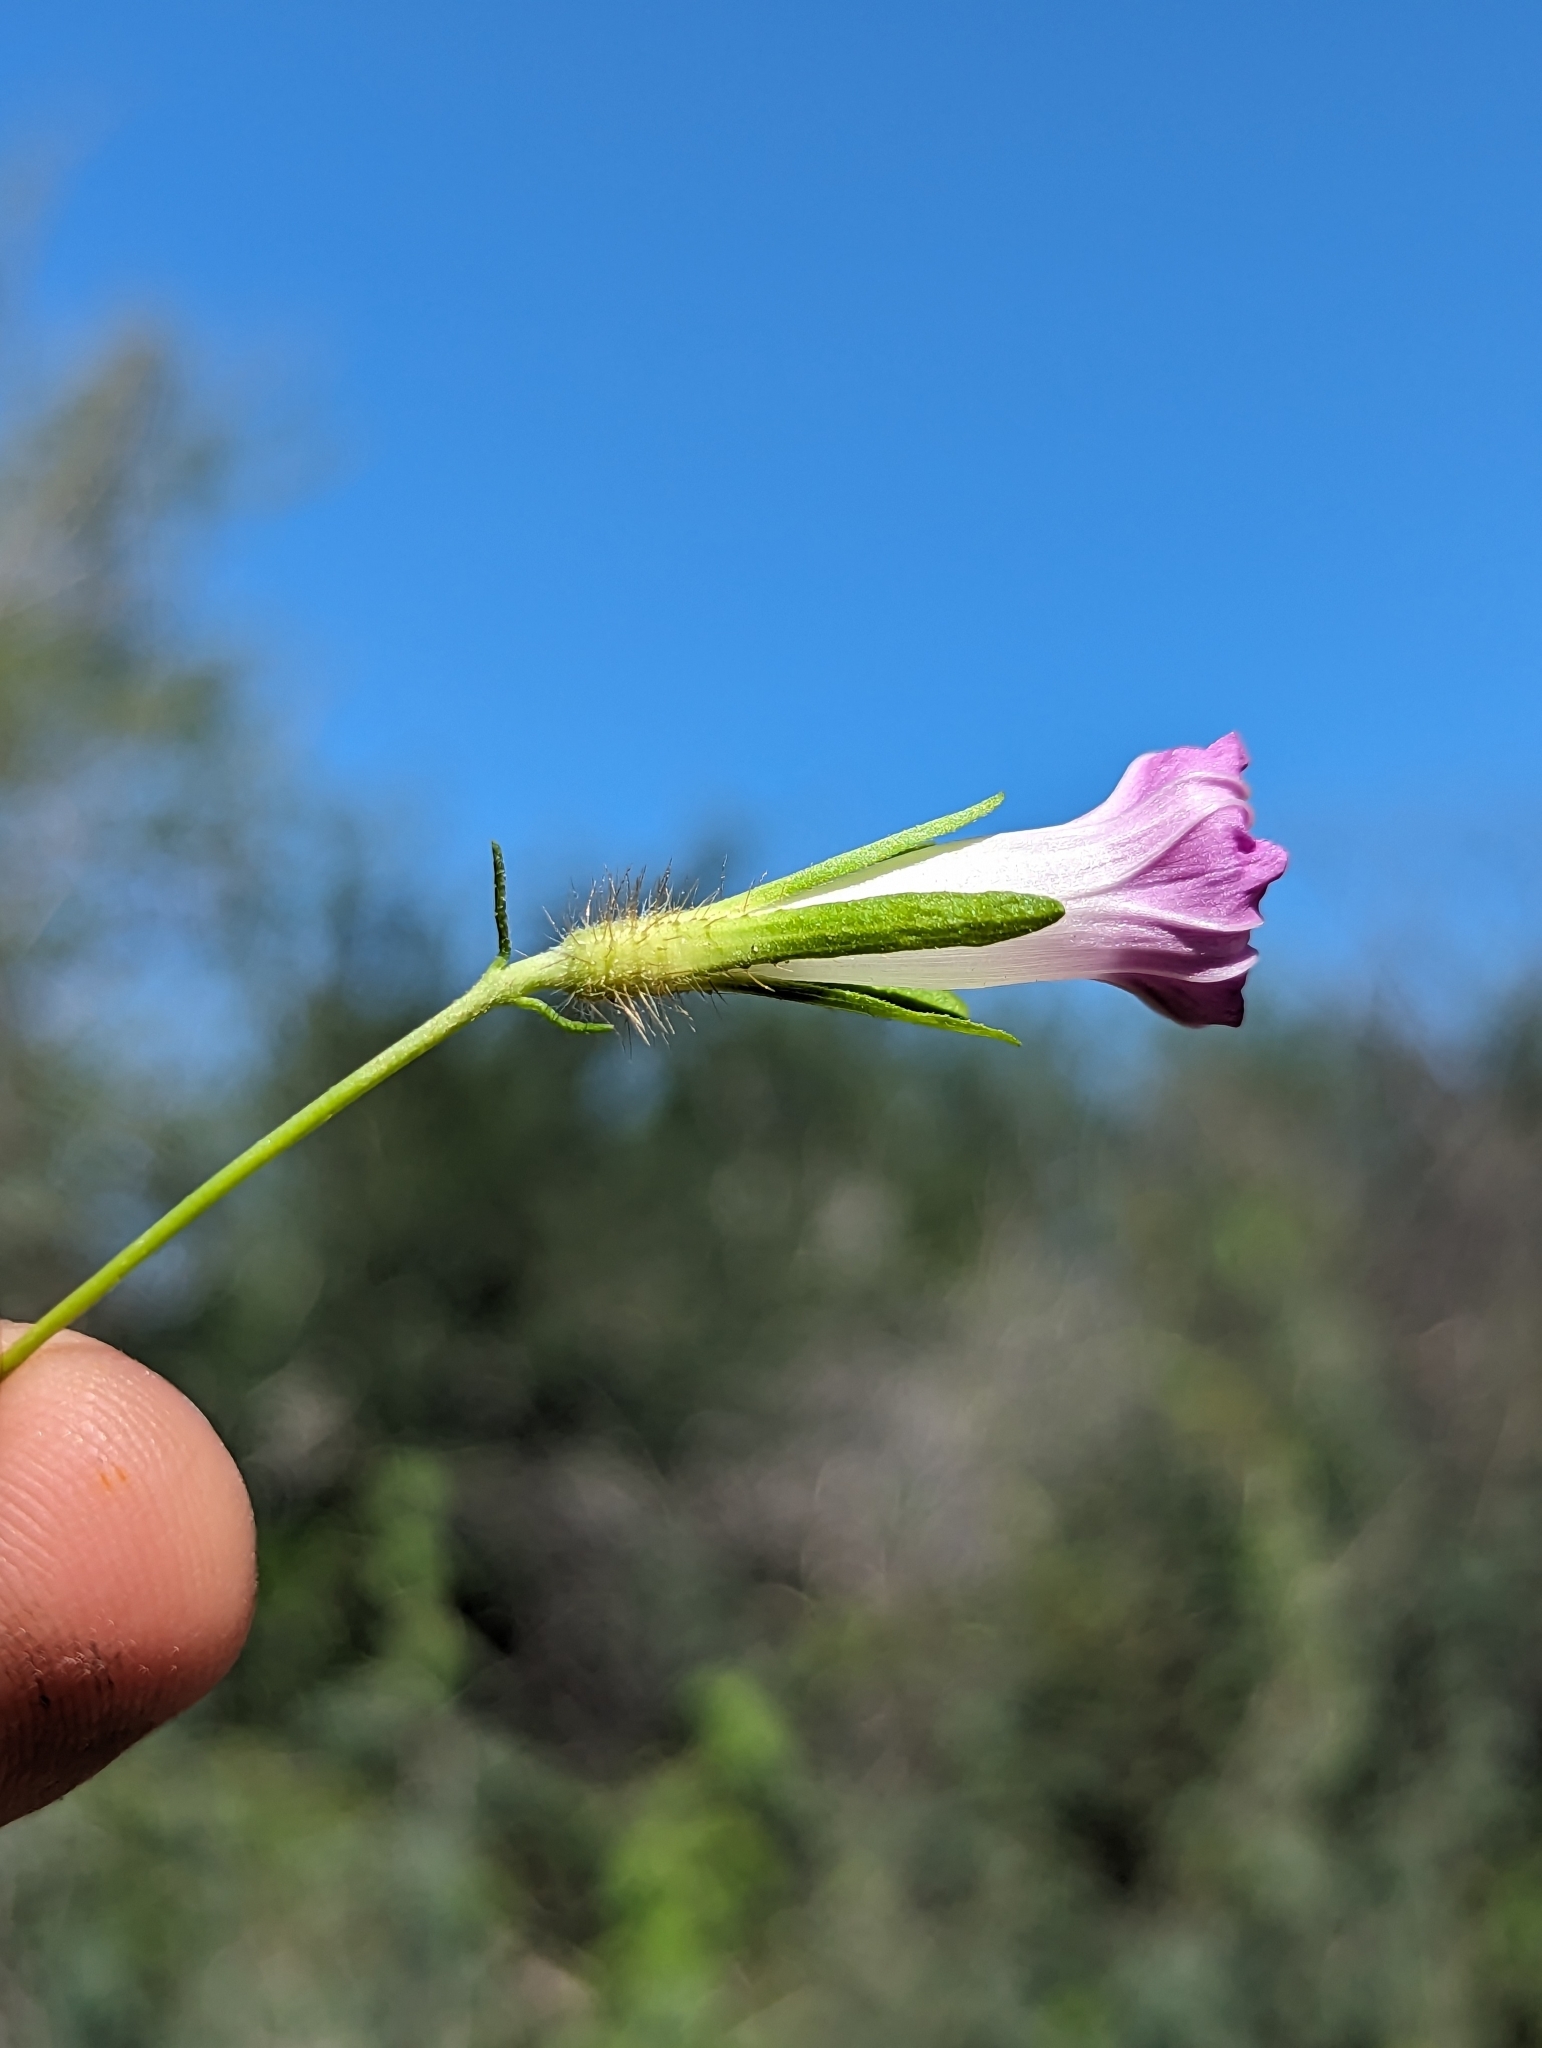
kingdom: Plantae
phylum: Tracheophyta
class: Magnoliopsida
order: Solanales
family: Convolvulaceae
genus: Ipomoea
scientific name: Ipomoea nil
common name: Japanese morning-glory
